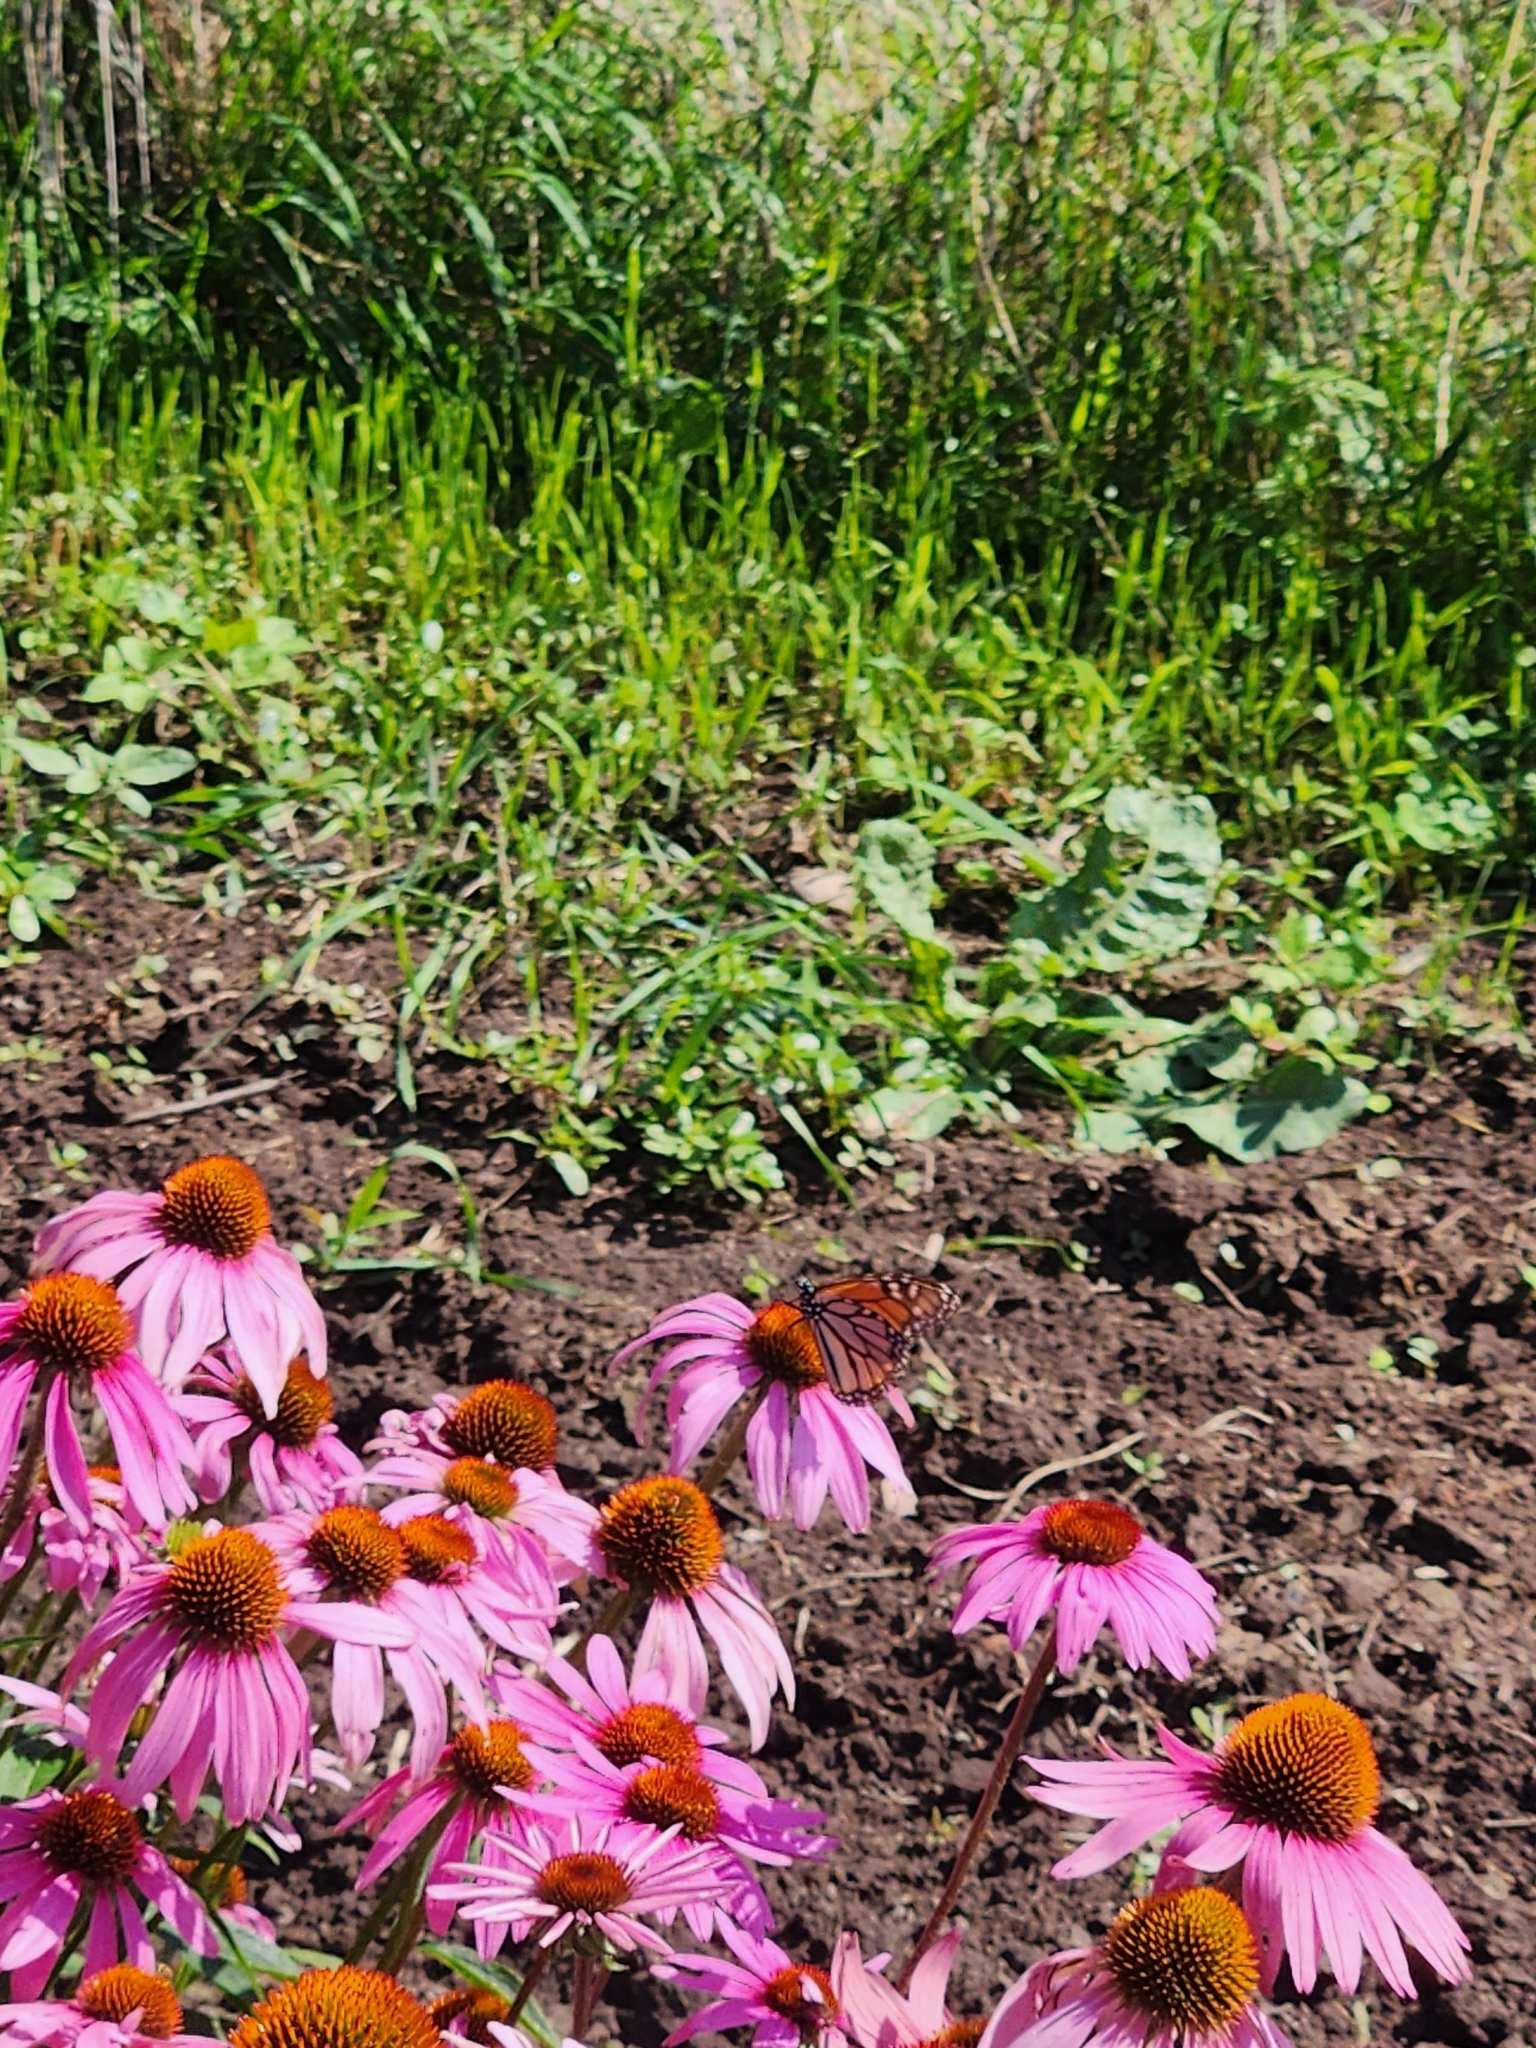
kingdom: Animalia
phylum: Arthropoda
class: Insecta
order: Lepidoptera
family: Nymphalidae
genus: Danaus
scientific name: Danaus plexippus
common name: Monarch
